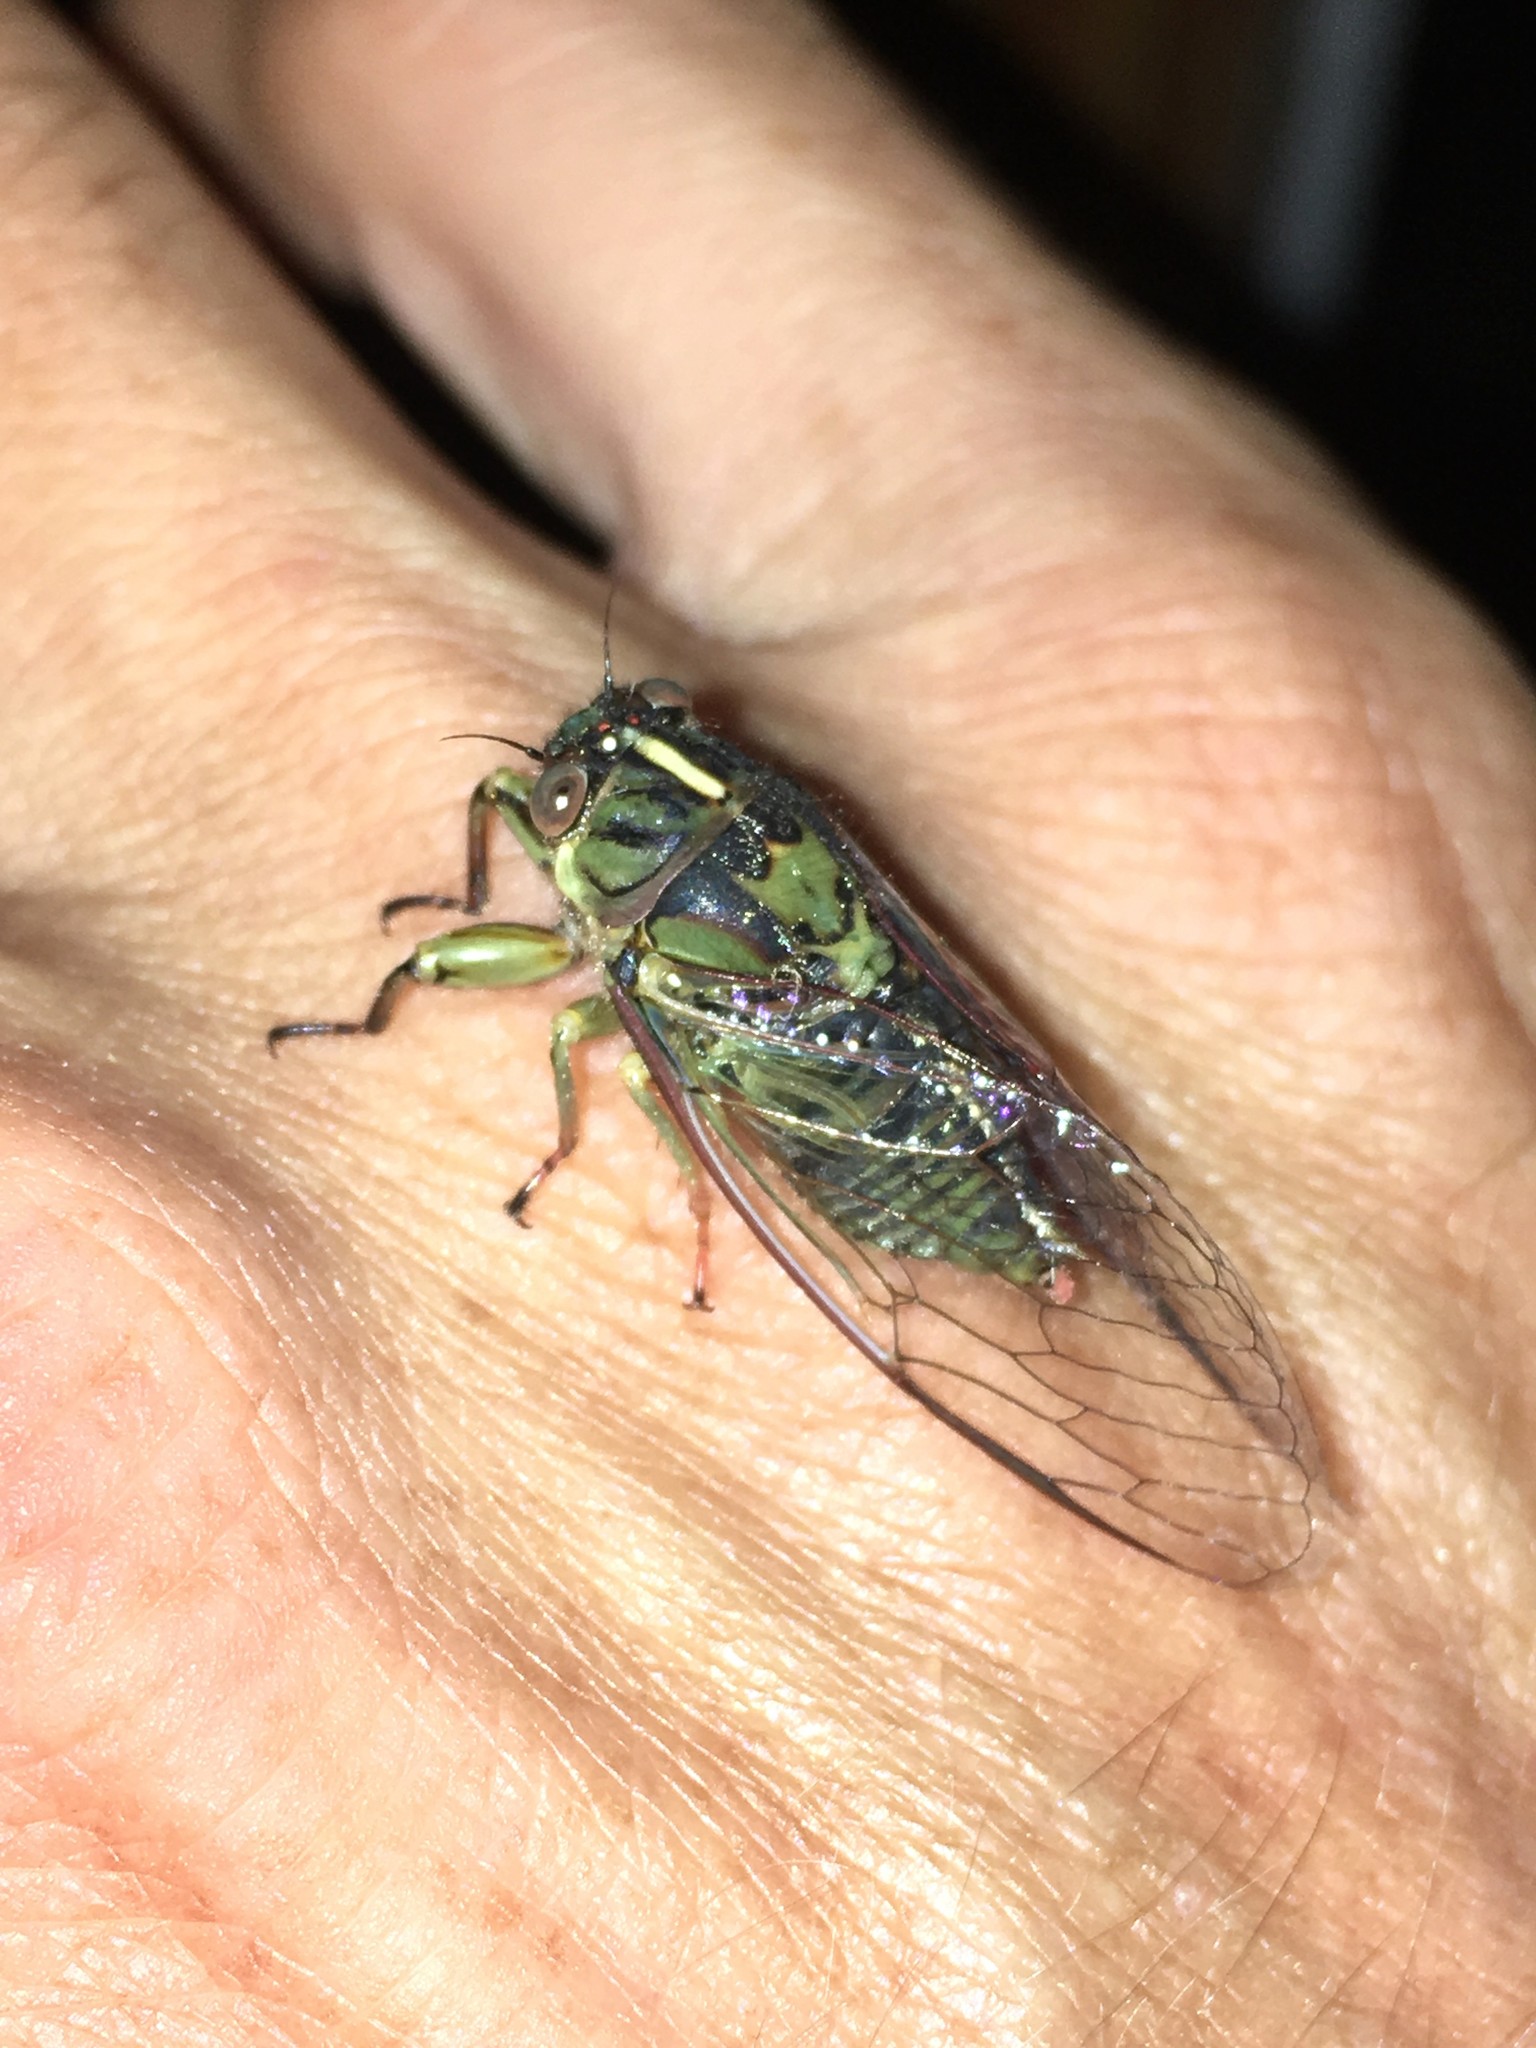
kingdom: Animalia
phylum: Arthropoda
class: Insecta
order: Hemiptera
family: Cicadidae
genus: Amphipsalta
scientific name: Amphipsalta zelandica
